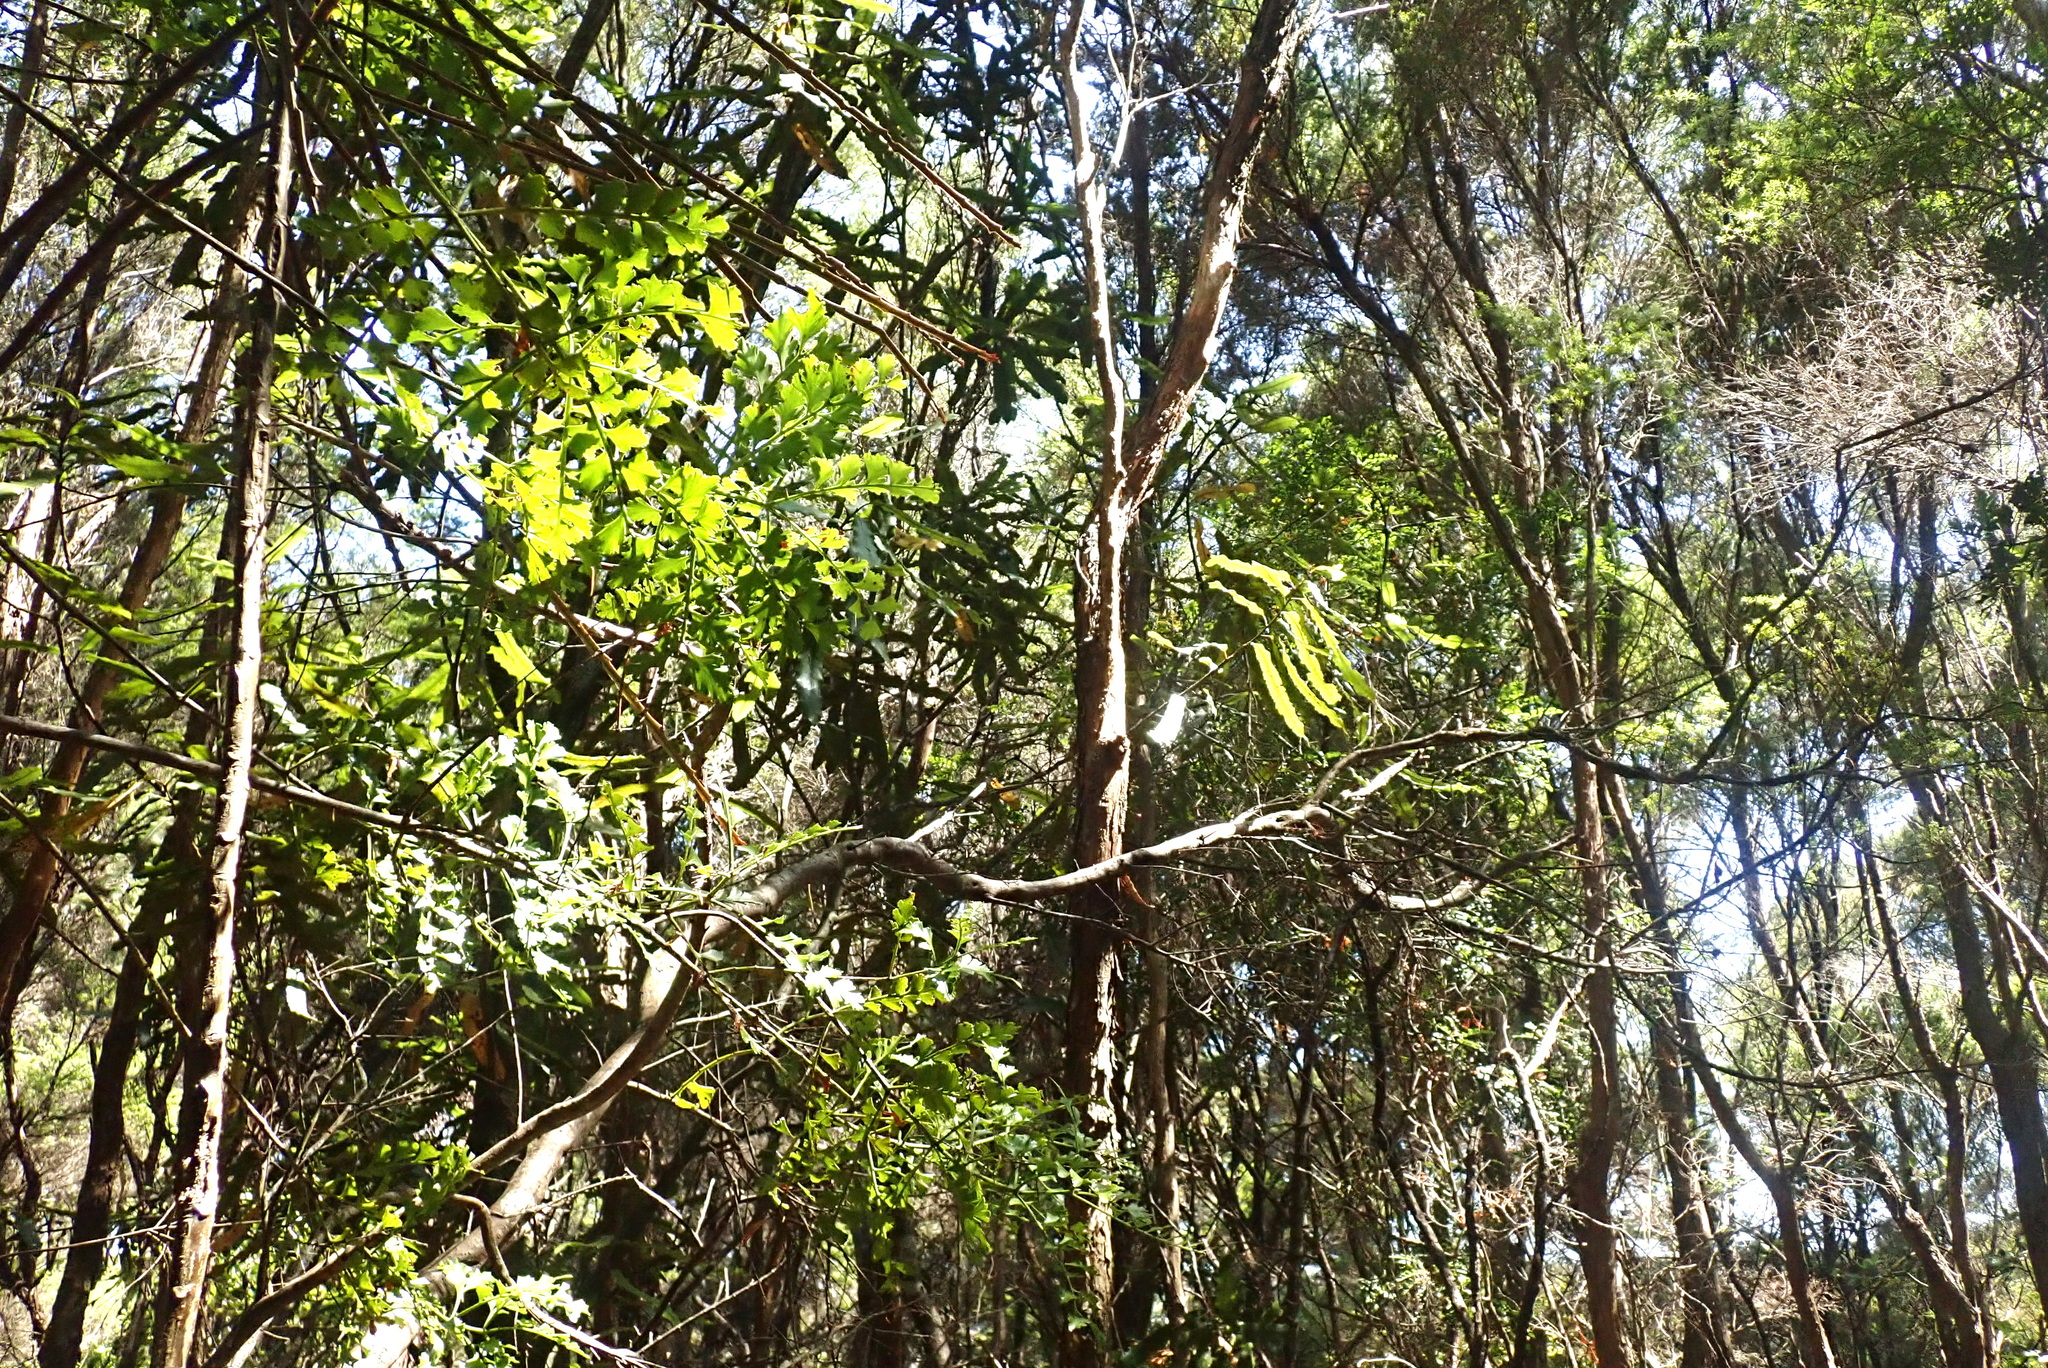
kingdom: Plantae
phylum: Tracheophyta
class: Magnoliopsida
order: Apiales
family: Araliaceae
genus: Pseudopanax
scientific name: Pseudopanax crassifolius
